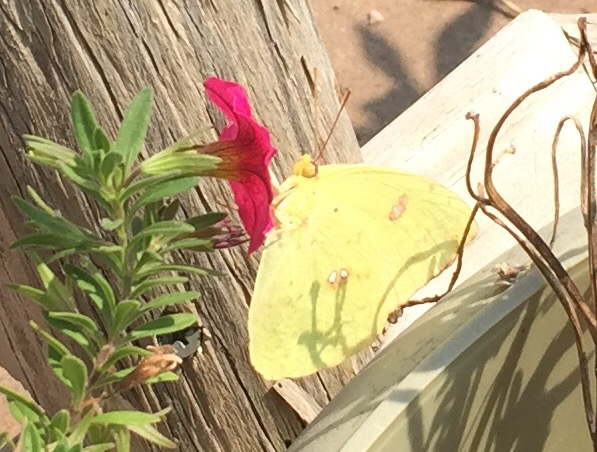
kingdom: Animalia
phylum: Arthropoda
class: Insecta
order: Lepidoptera
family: Pieridae
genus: Phoebis
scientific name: Phoebis sennae
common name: Cloudless sulphur
